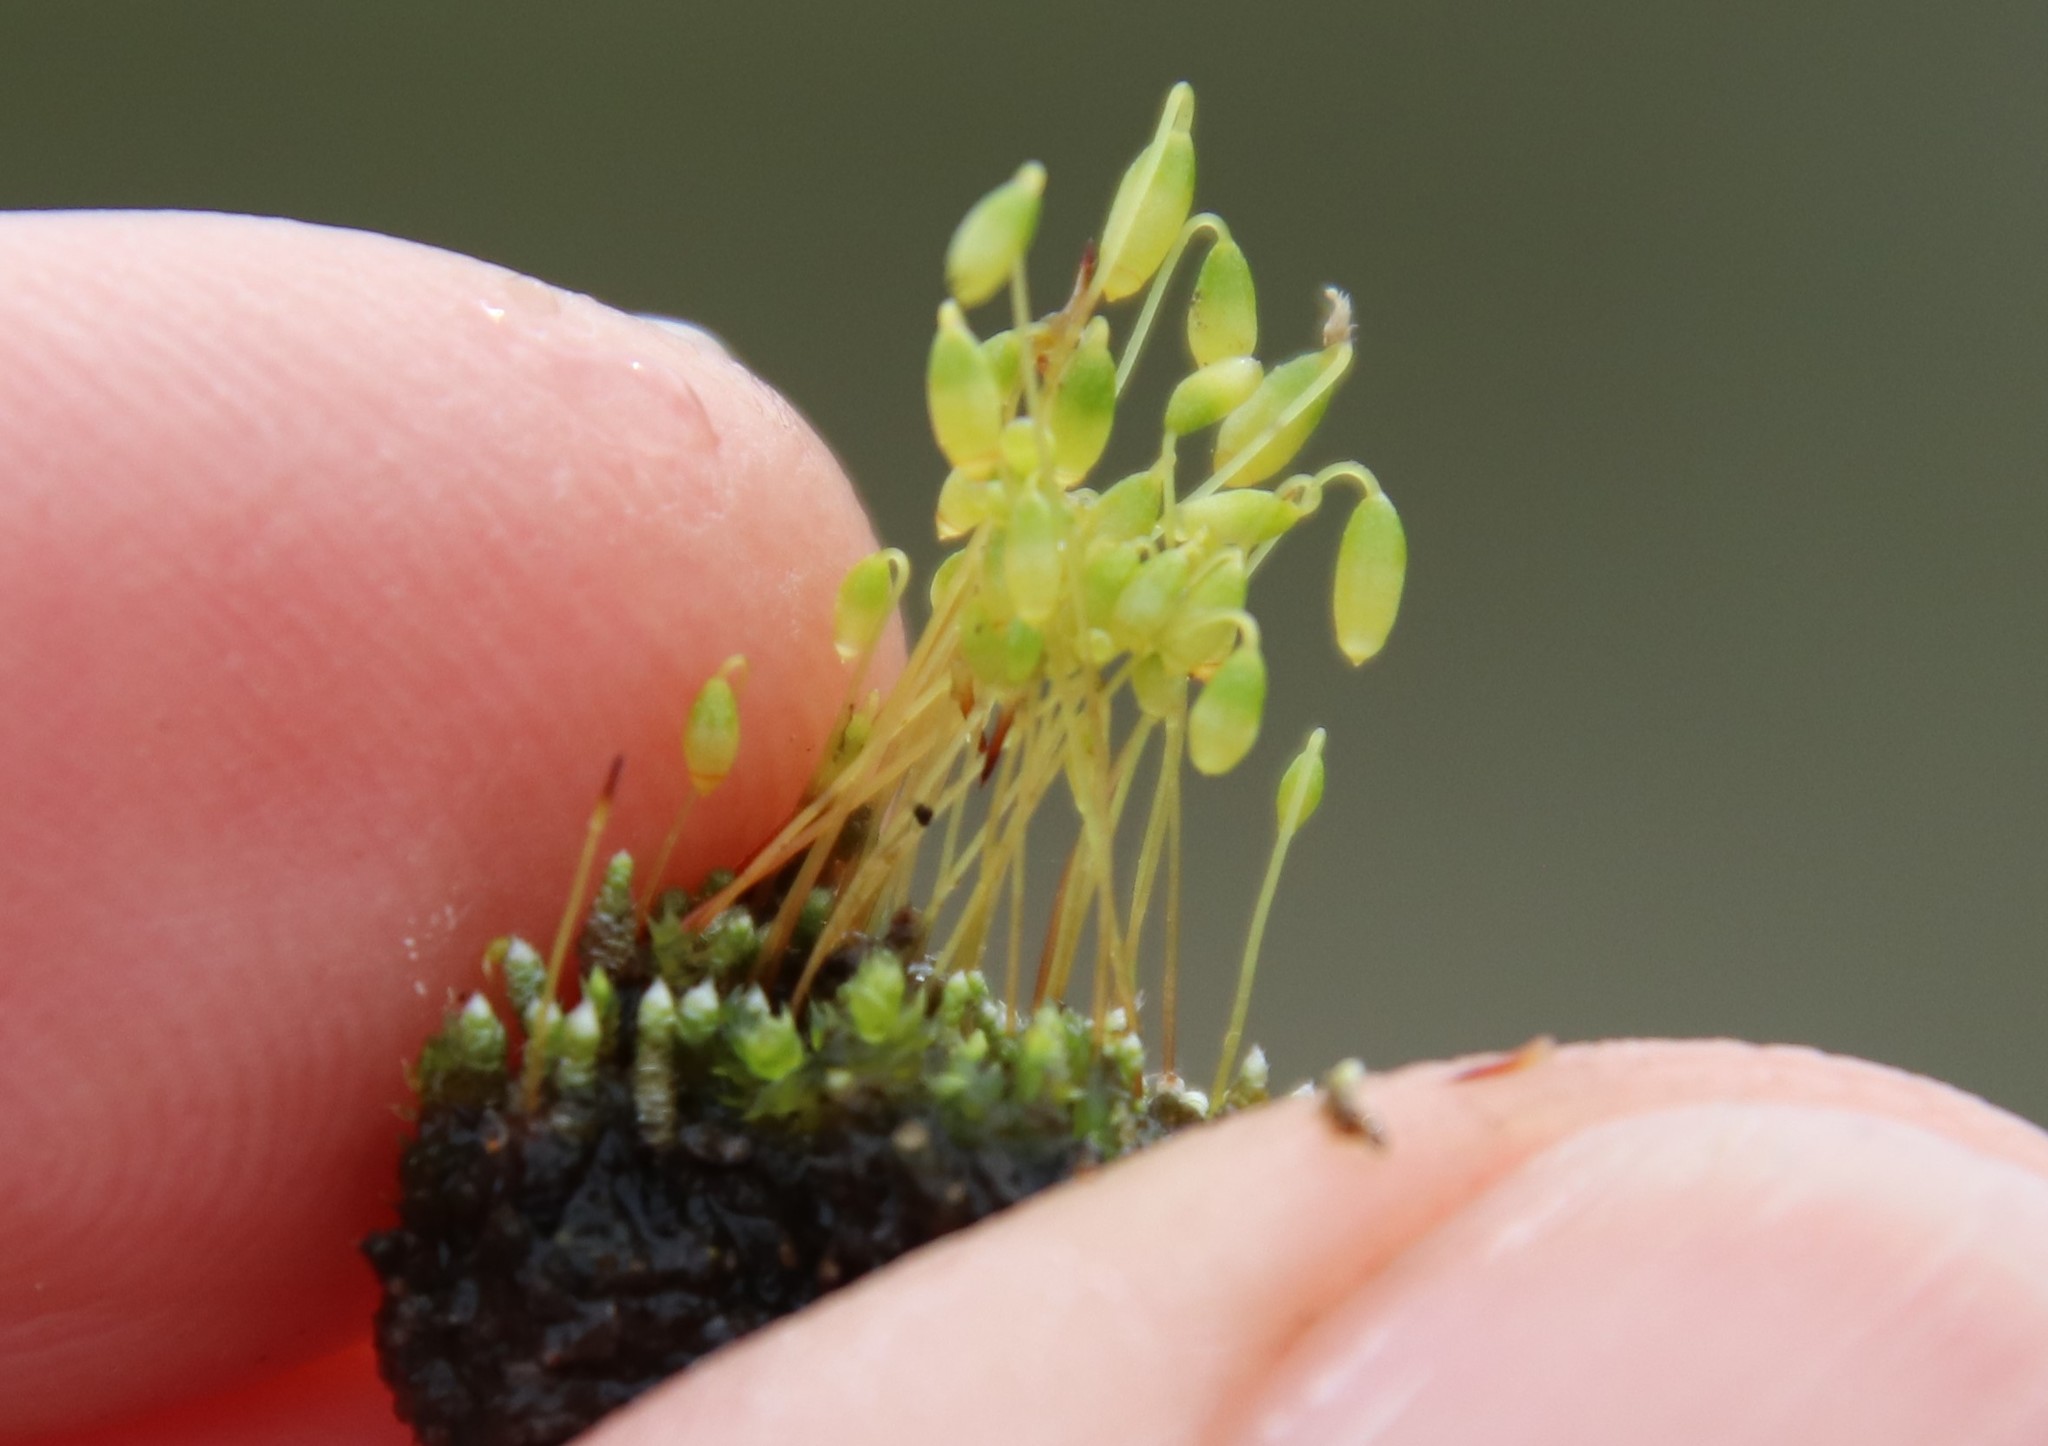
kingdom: Plantae
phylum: Bryophyta
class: Bryopsida
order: Bryales
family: Bryaceae
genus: Bryum
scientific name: Bryum argenteum
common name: Silver-moss
